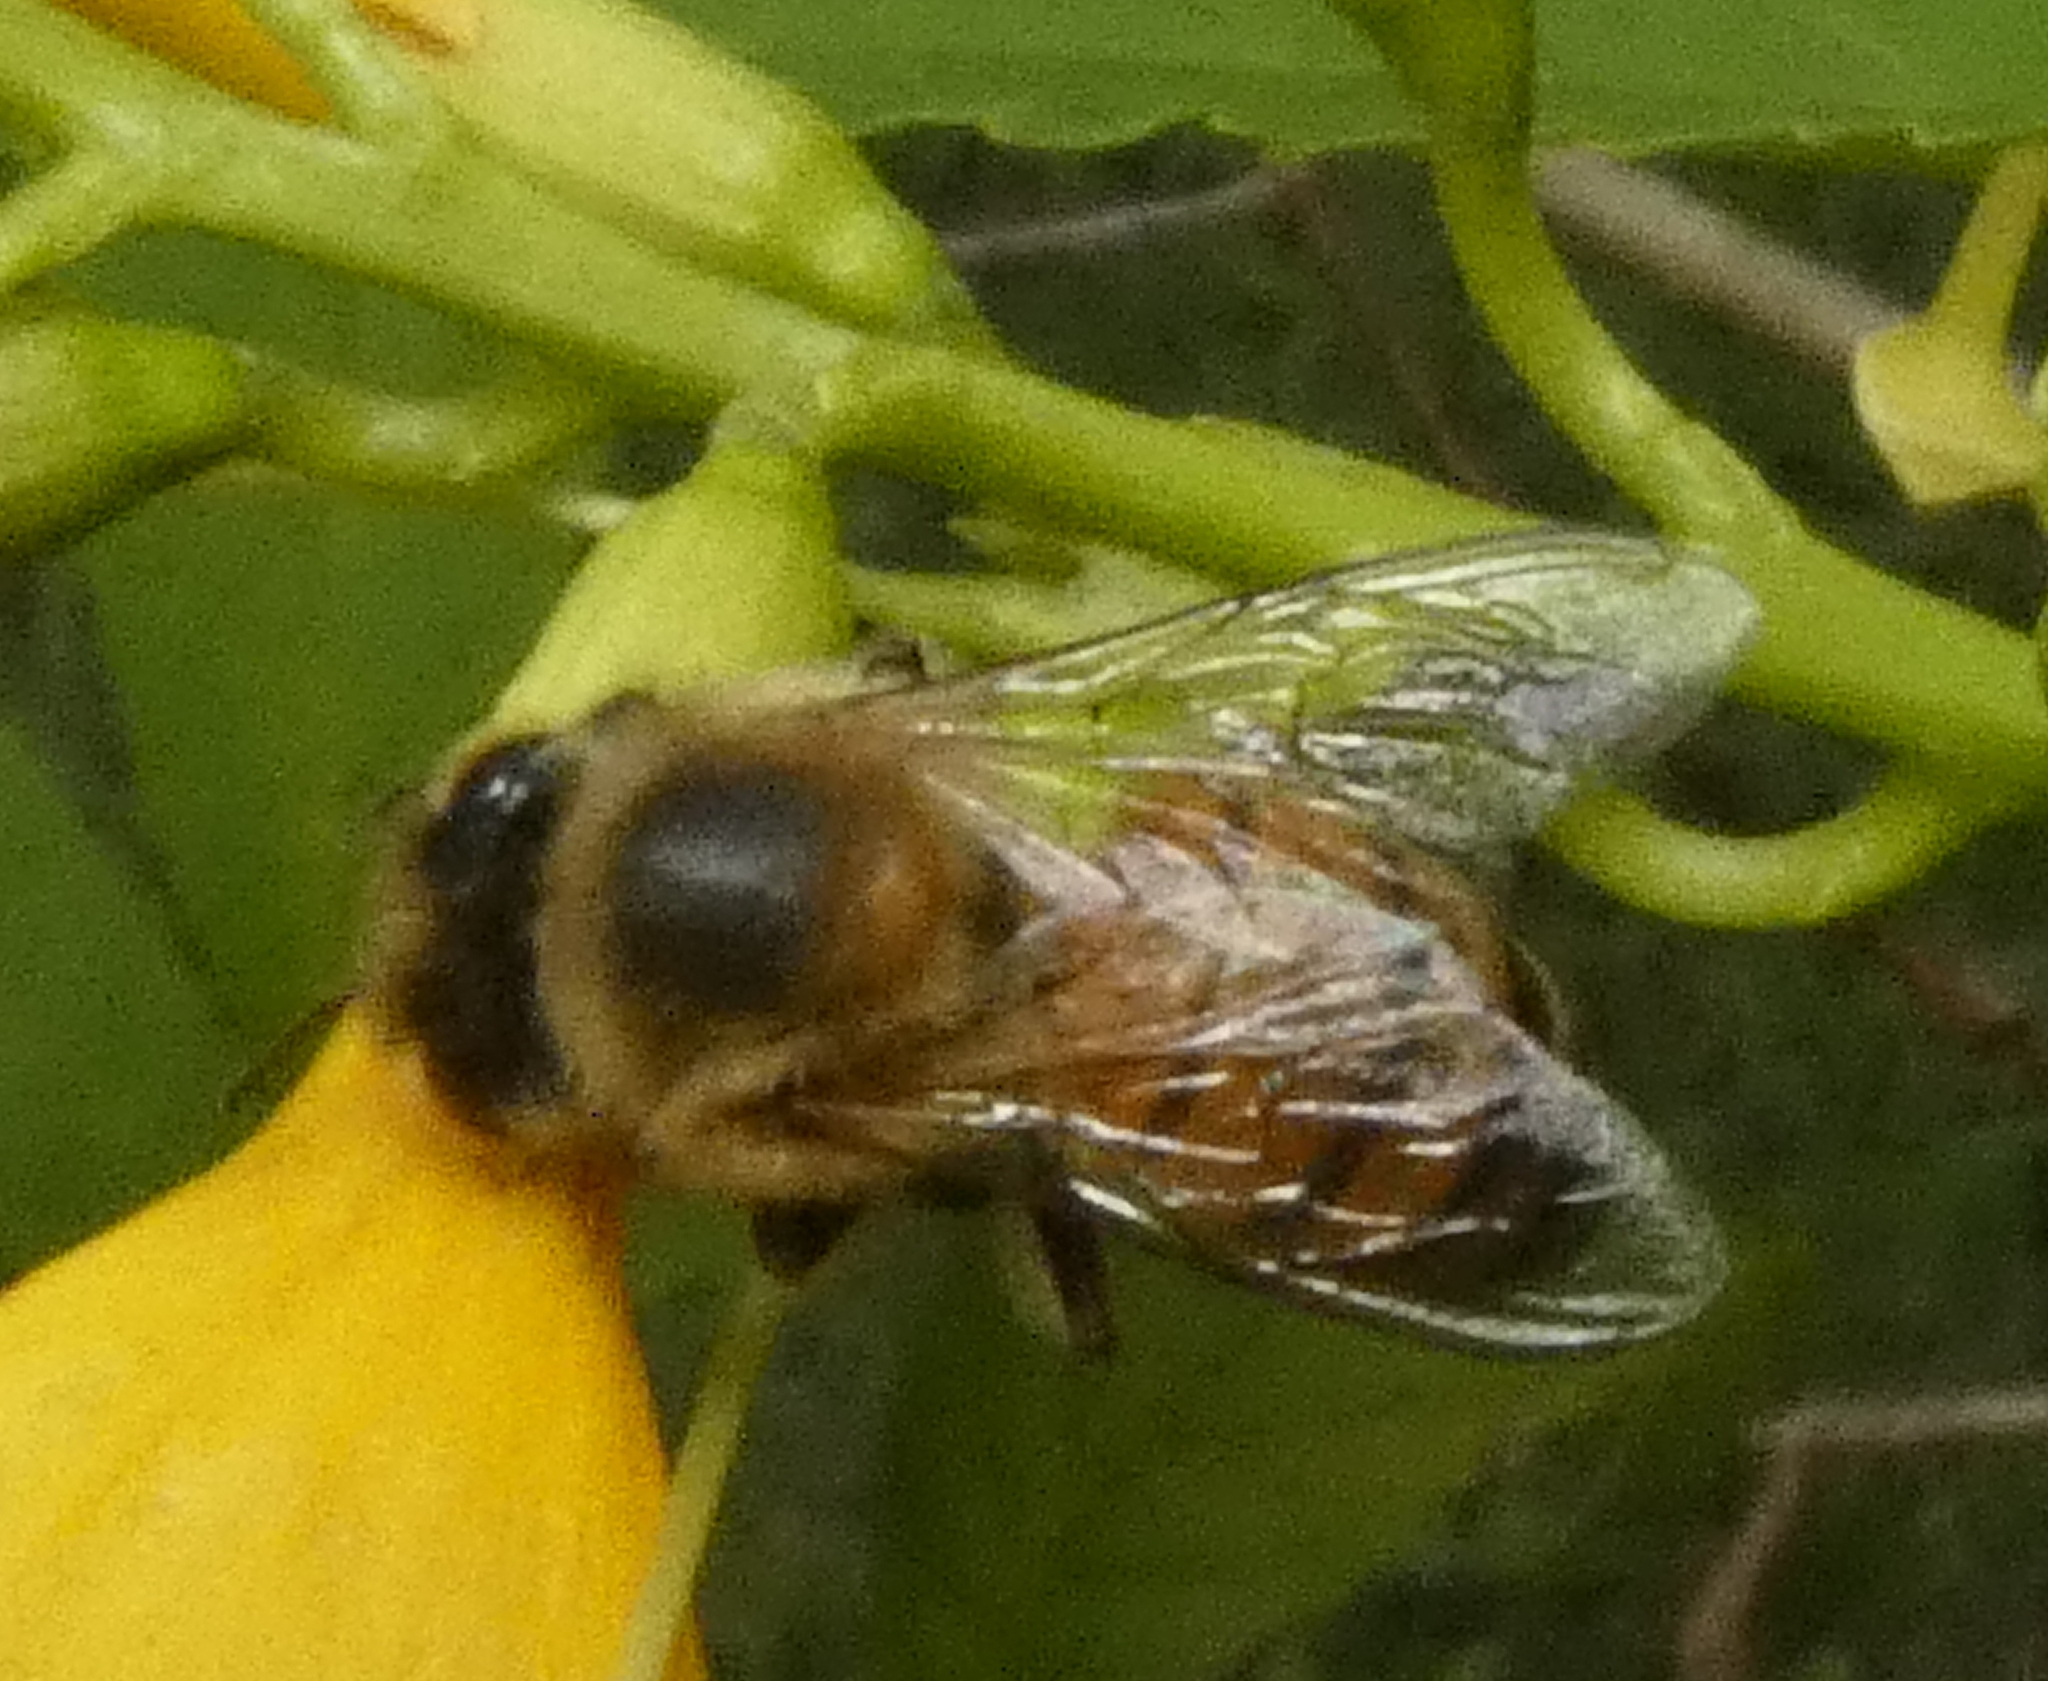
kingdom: Animalia
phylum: Arthropoda
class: Insecta
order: Hymenoptera
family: Apidae
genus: Apis
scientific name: Apis mellifera
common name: Honey bee
